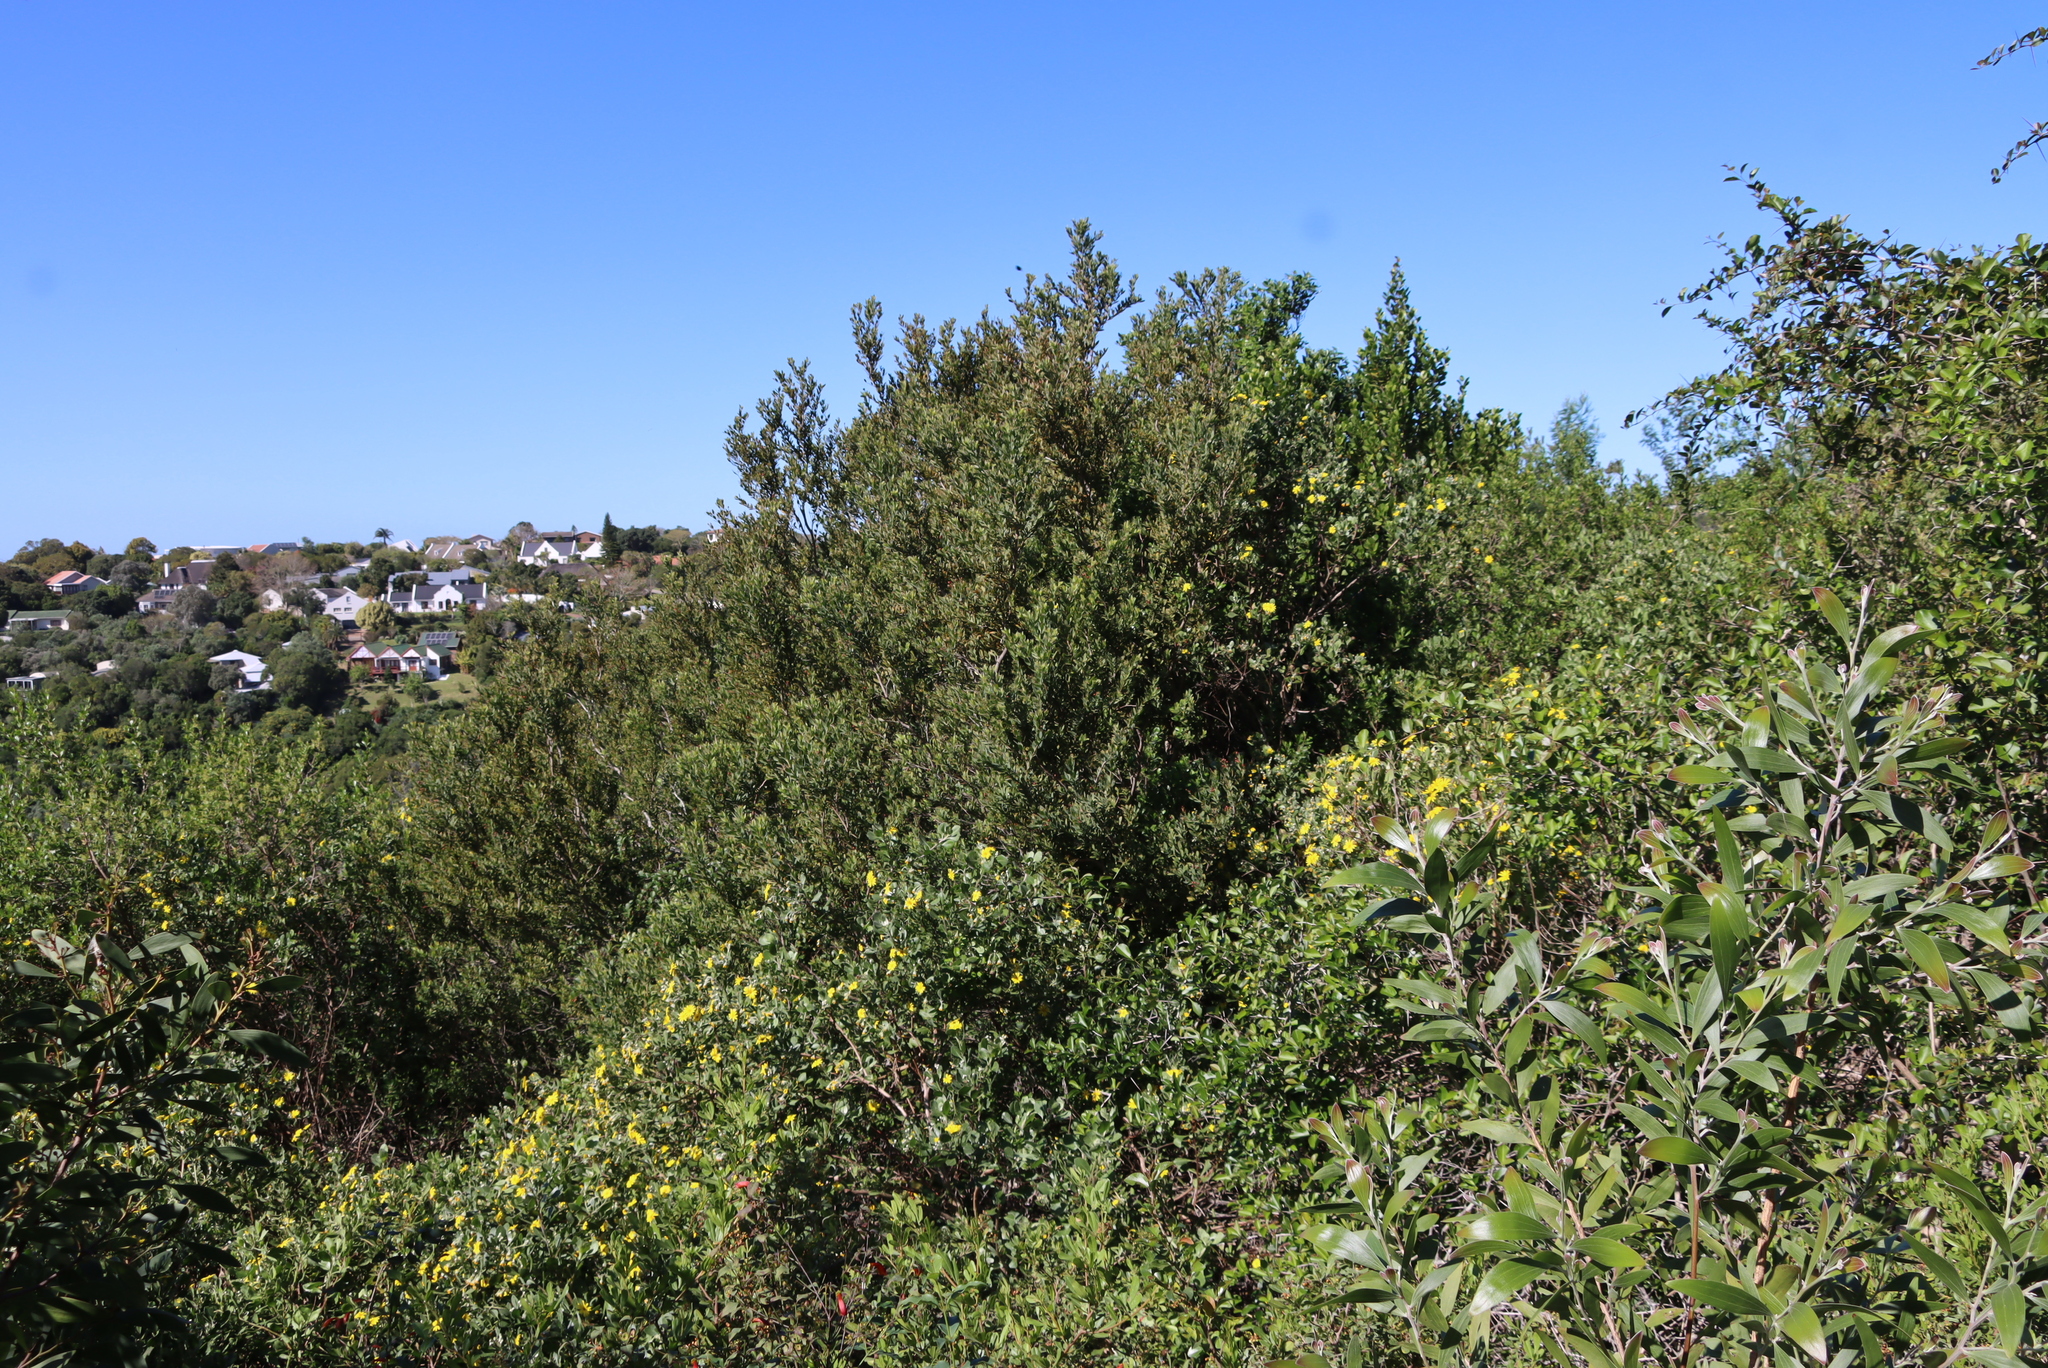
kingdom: Plantae
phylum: Tracheophyta
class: Magnoliopsida
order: Santalales
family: Santalaceae
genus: Osyris
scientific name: Osyris compressa
